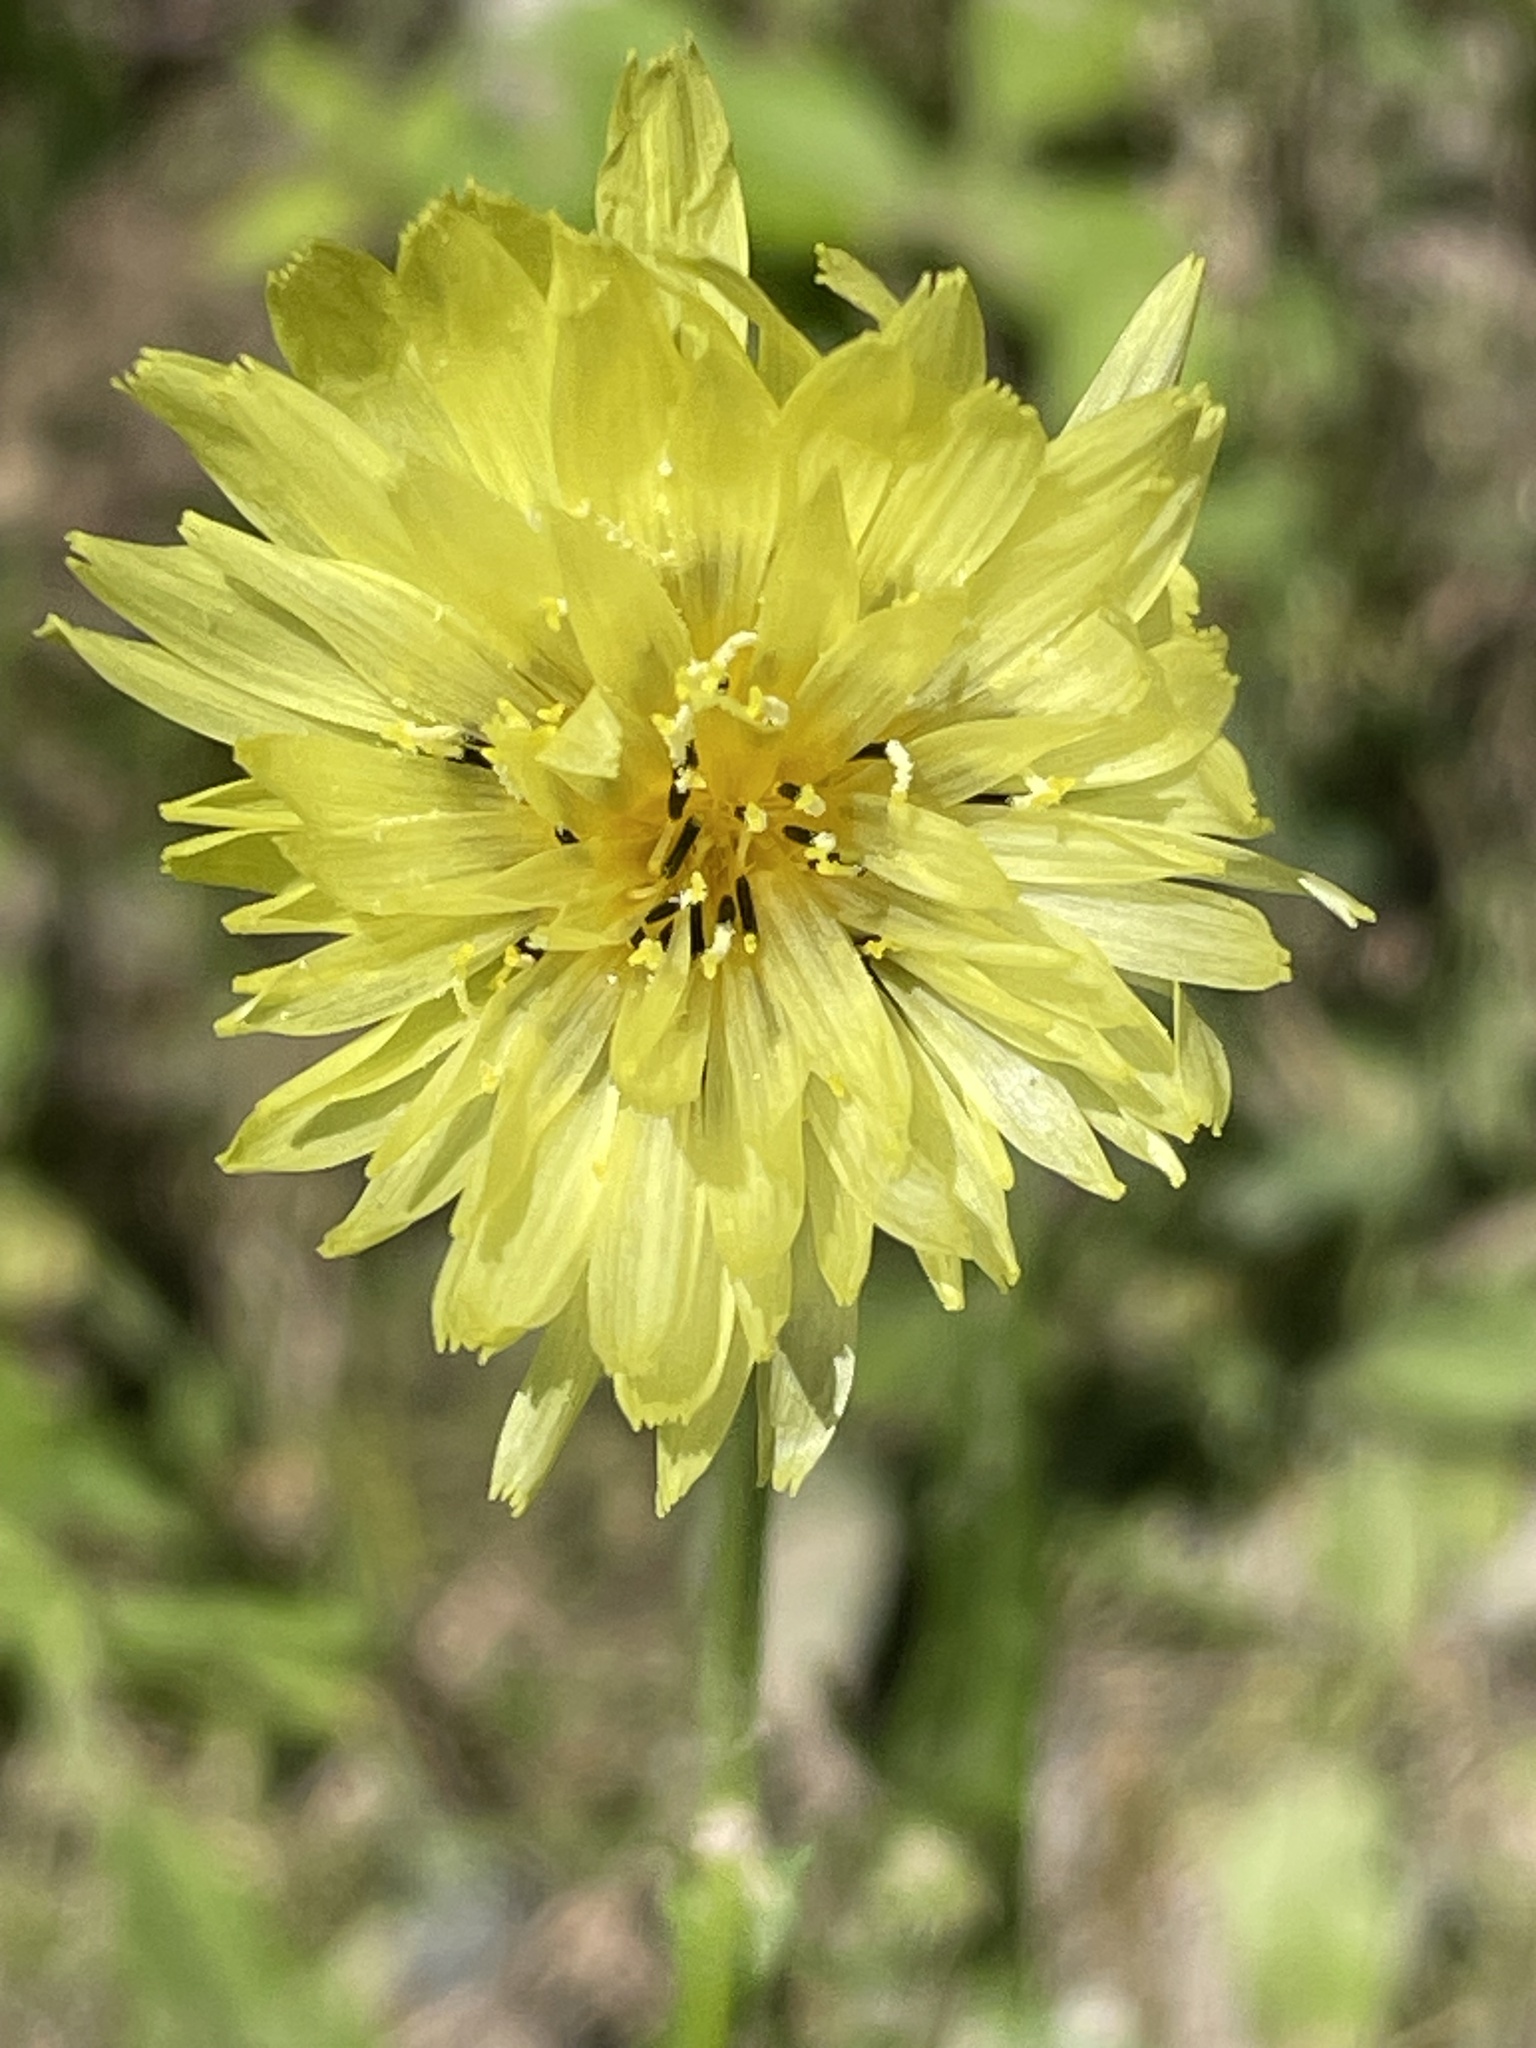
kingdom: Plantae
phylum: Tracheophyta
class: Magnoliopsida
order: Asterales
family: Asteraceae
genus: Pyrrhopappus
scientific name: Pyrrhopappus carolinianus
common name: Carolina desert-chicory
